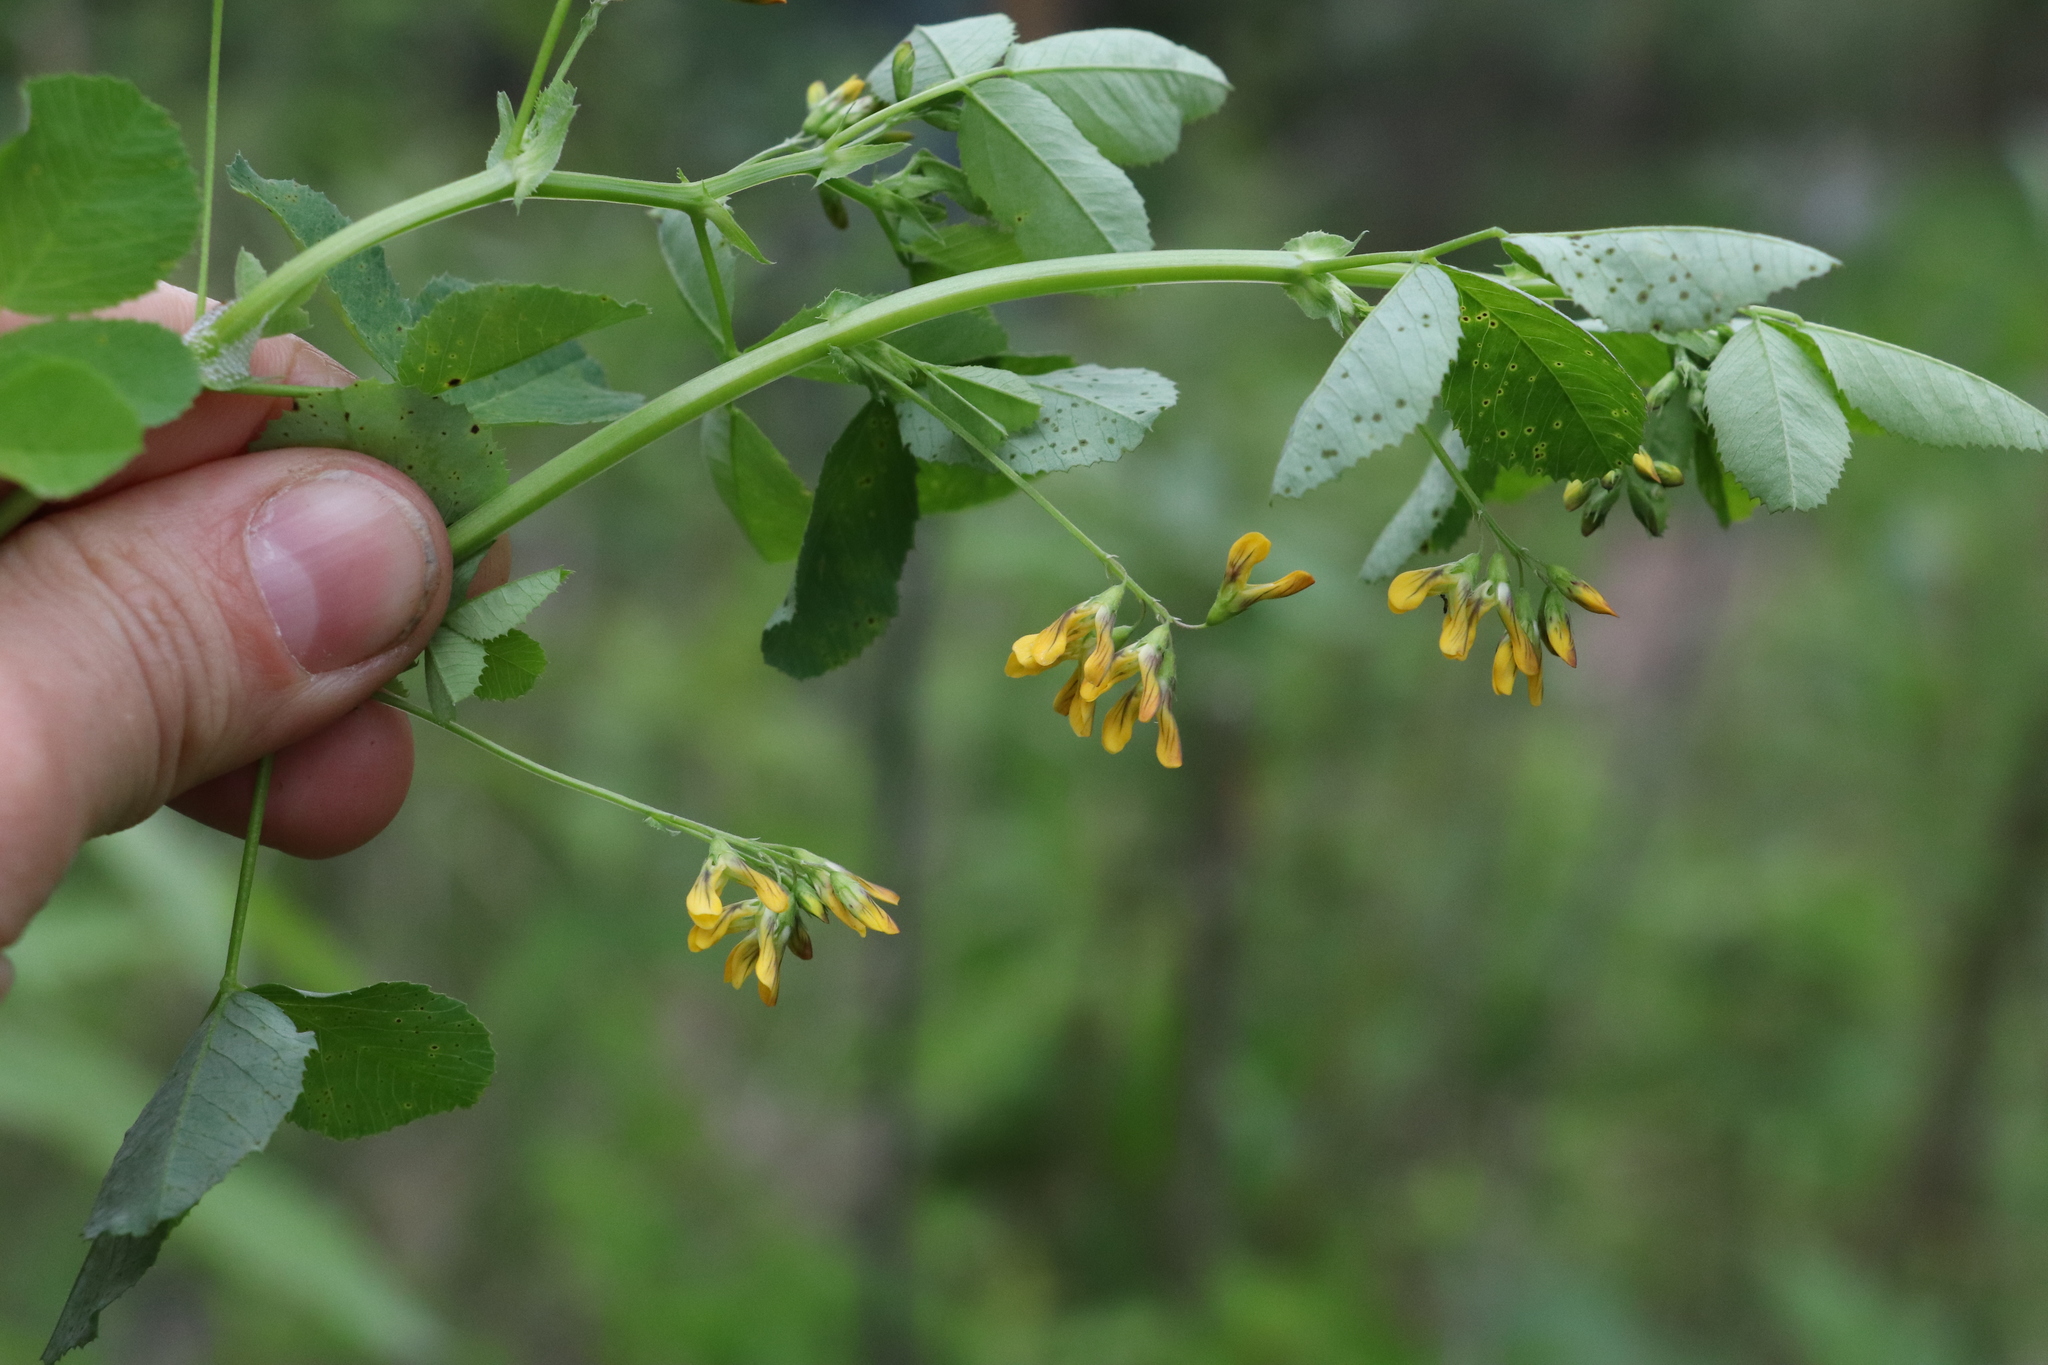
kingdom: Plantae
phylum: Tracheophyta
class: Magnoliopsida
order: Fabales
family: Fabaceae
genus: Medicago
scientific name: Medicago platycarpos
